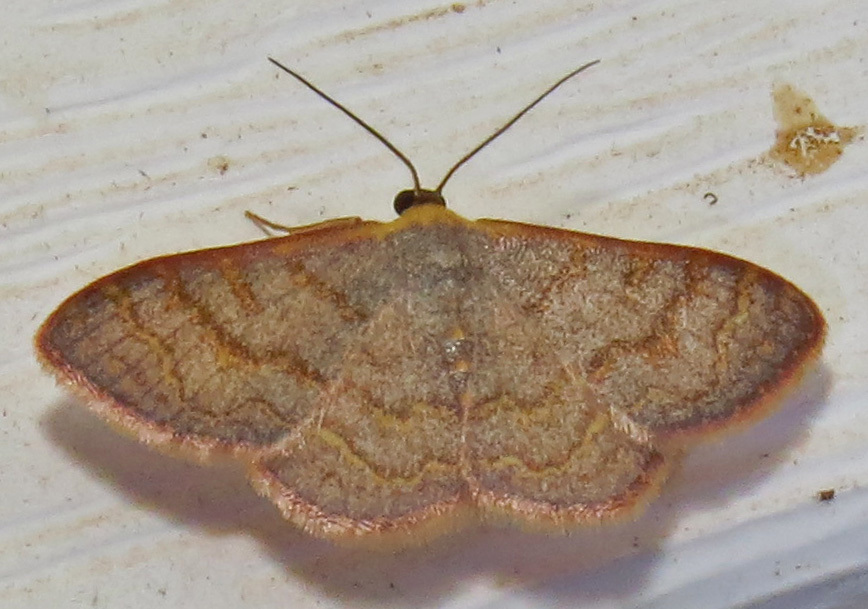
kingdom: Animalia
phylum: Arthropoda
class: Insecta
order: Lepidoptera
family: Geometridae
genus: Leptostales
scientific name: Leptostales pannaria
